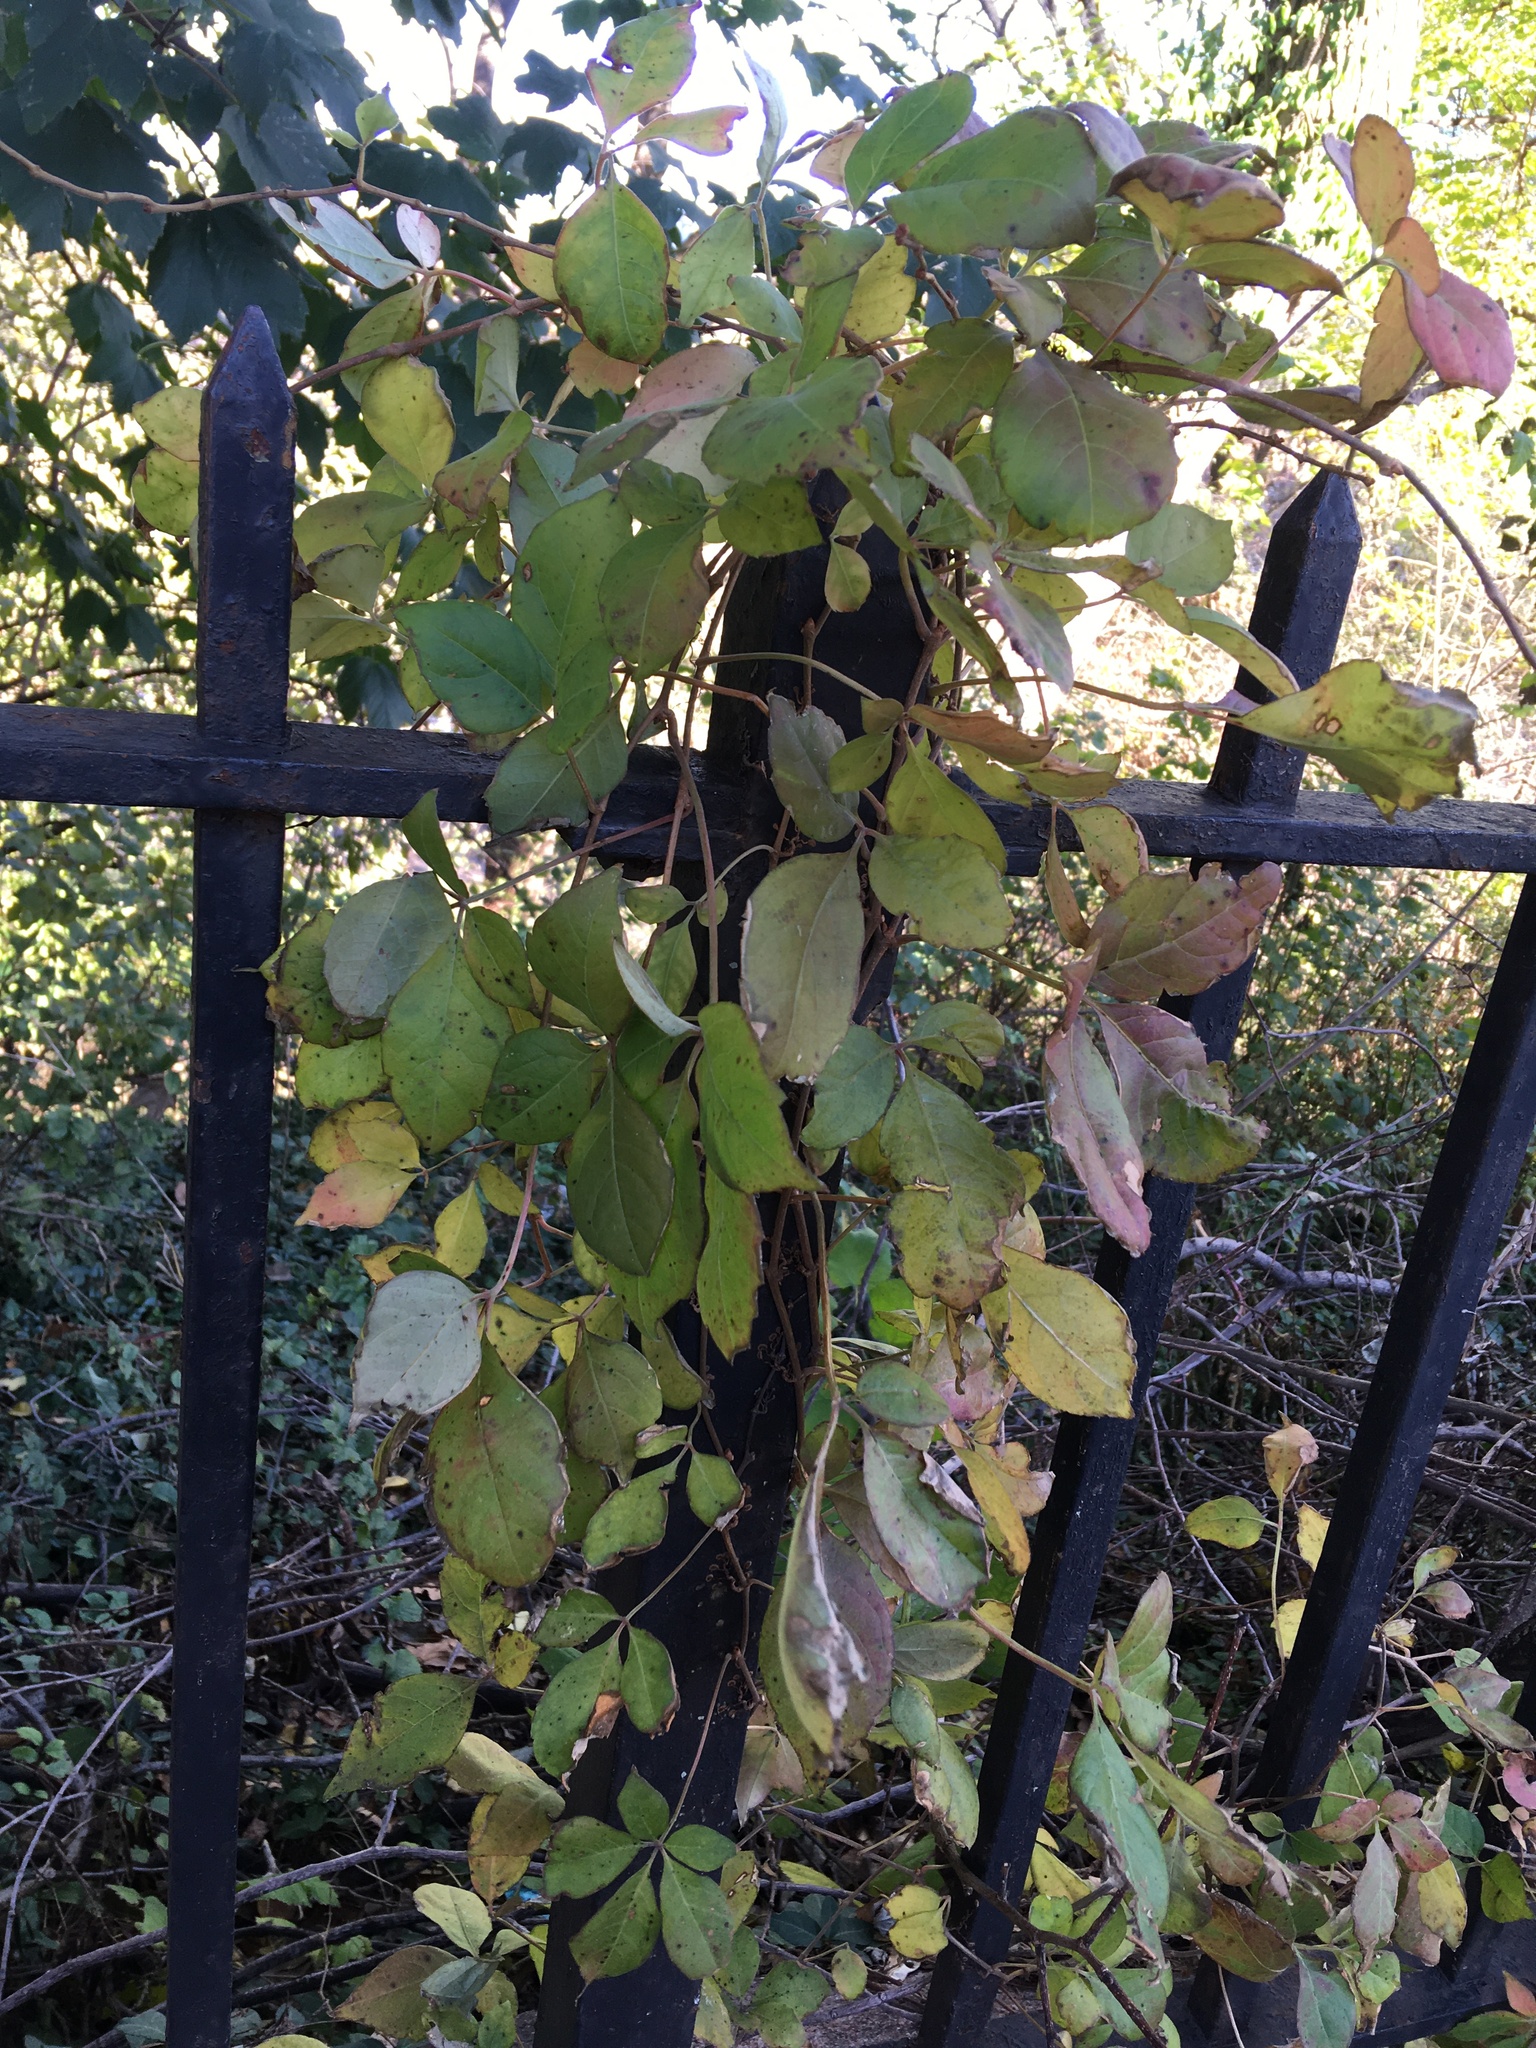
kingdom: Plantae
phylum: Tracheophyta
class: Magnoliopsida
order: Vitales
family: Vitaceae
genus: Parthenocissus
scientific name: Parthenocissus quinquefolia
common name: Virginia-creeper
